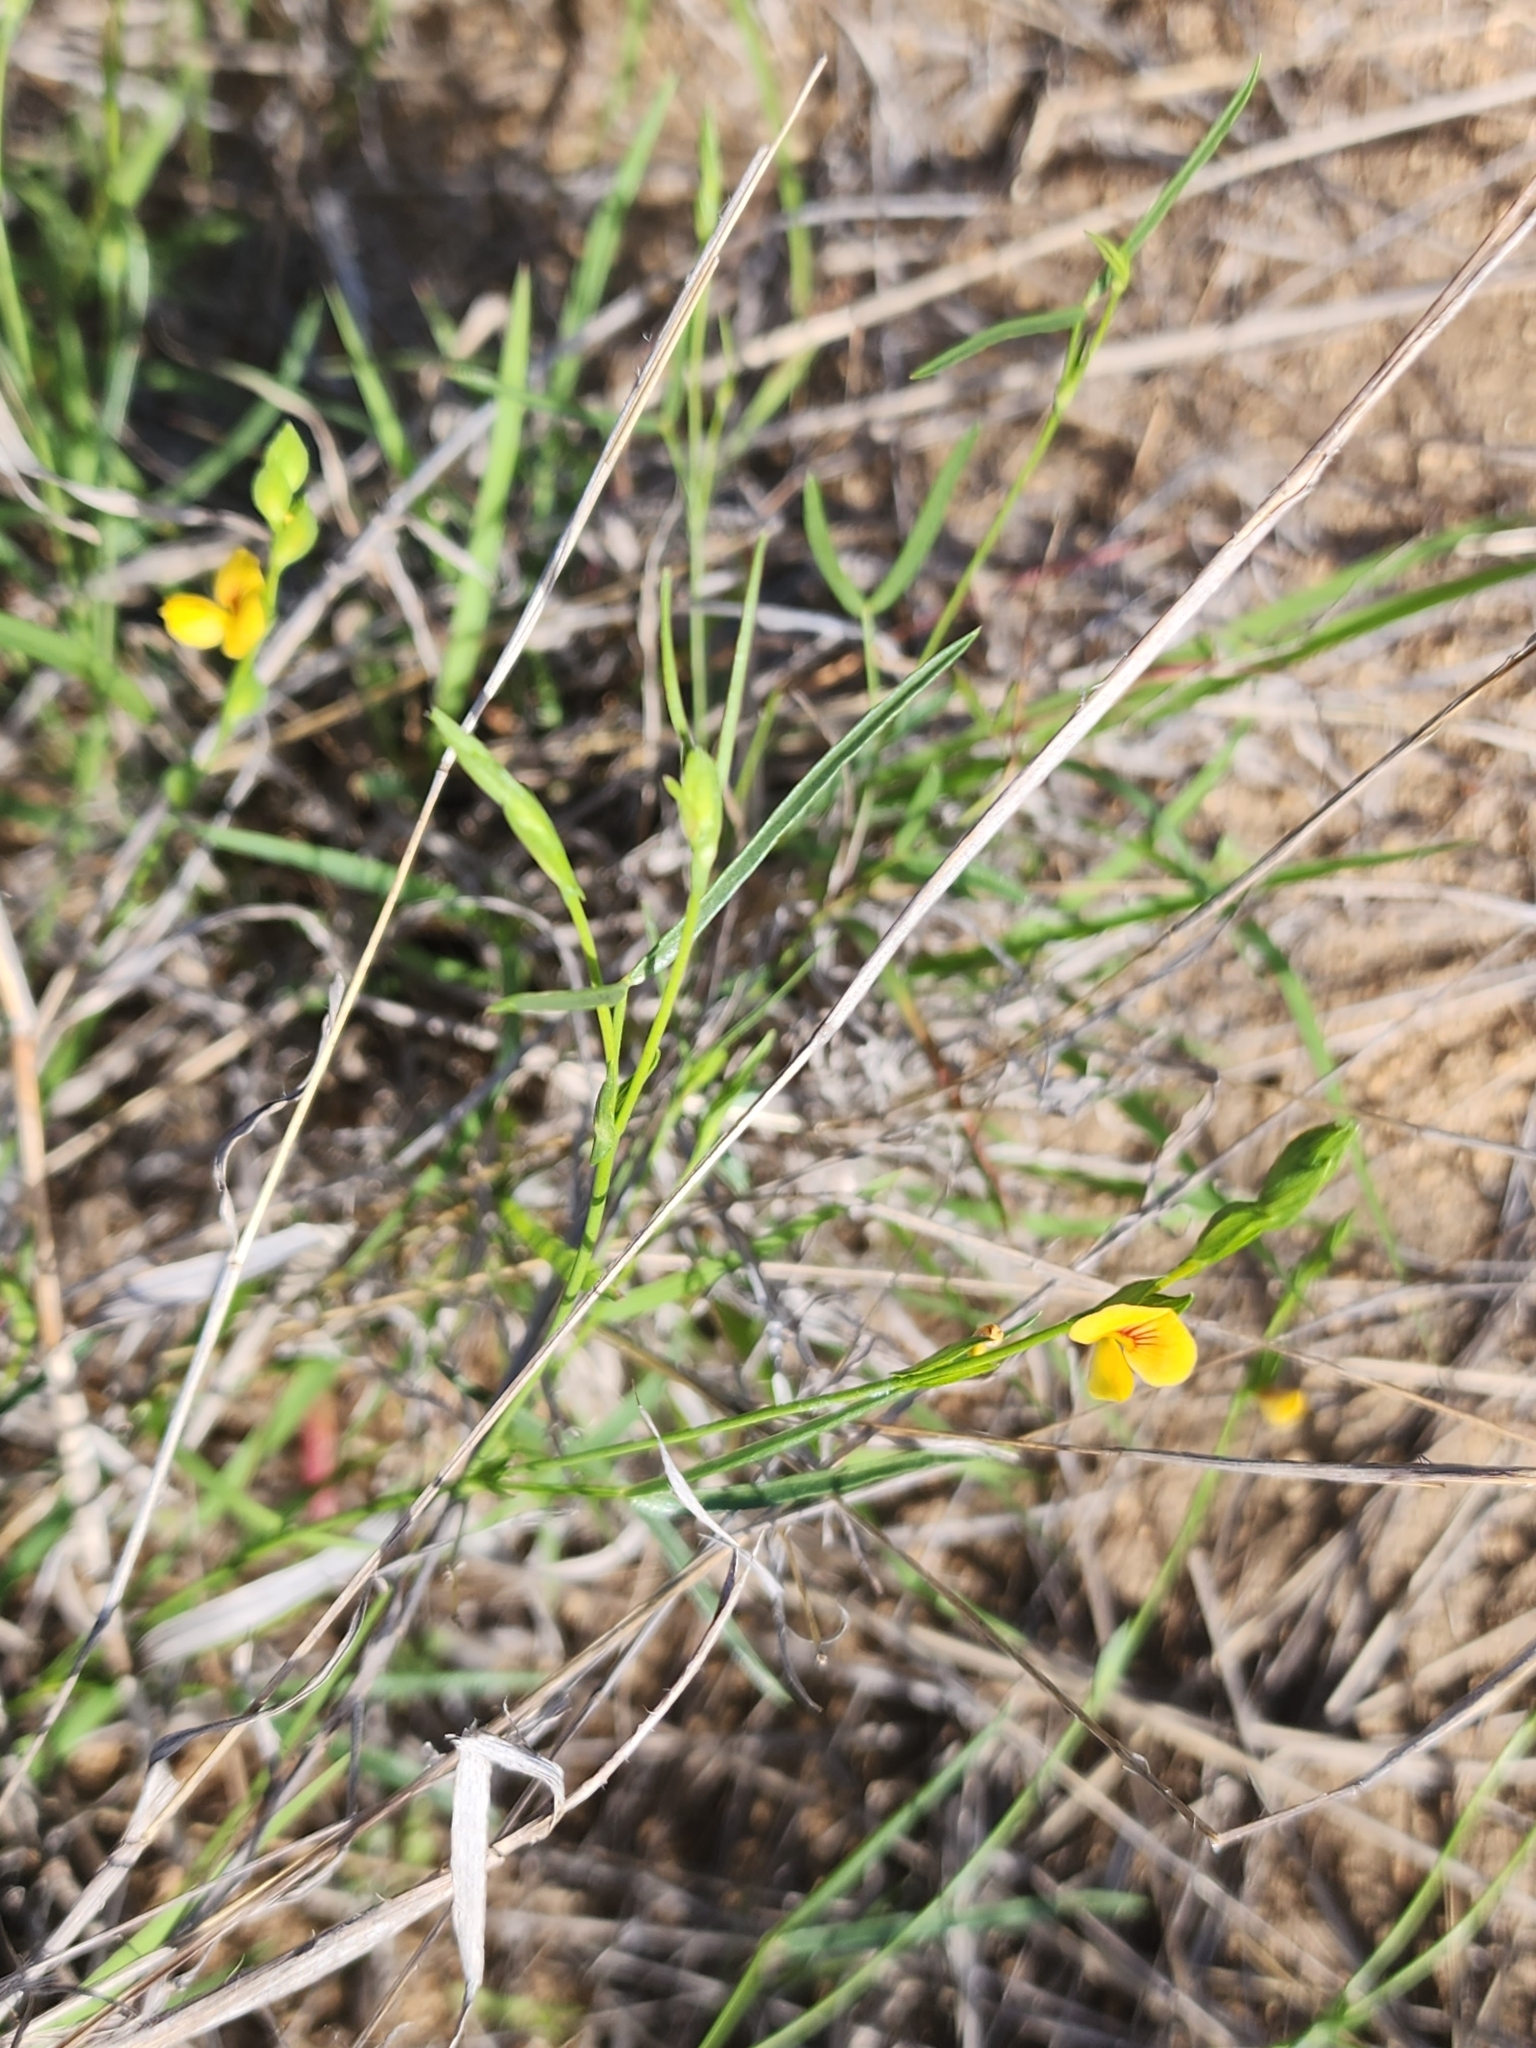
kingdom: Plantae
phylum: Tracheophyta
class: Magnoliopsida
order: Fabales
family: Fabaceae
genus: Zornia
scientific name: Zornia dyctiocarpa
